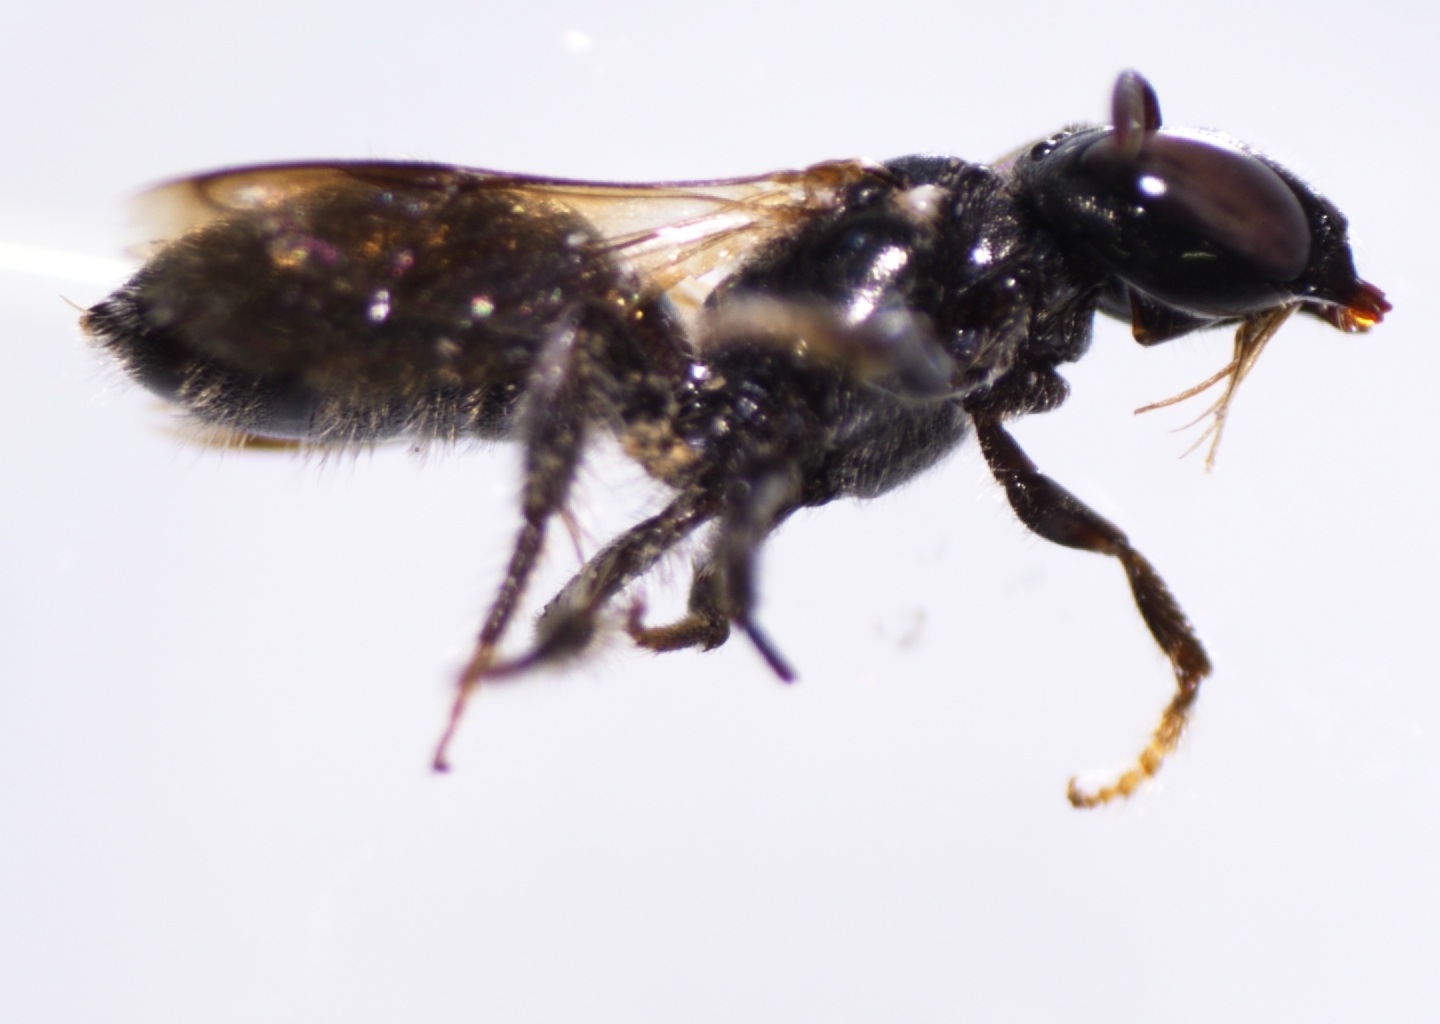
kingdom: Animalia
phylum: Arthropoda
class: Insecta
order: Hymenoptera
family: Apidae
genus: Ceratina
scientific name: Ceratina dentipes
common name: Small carpenter bee
